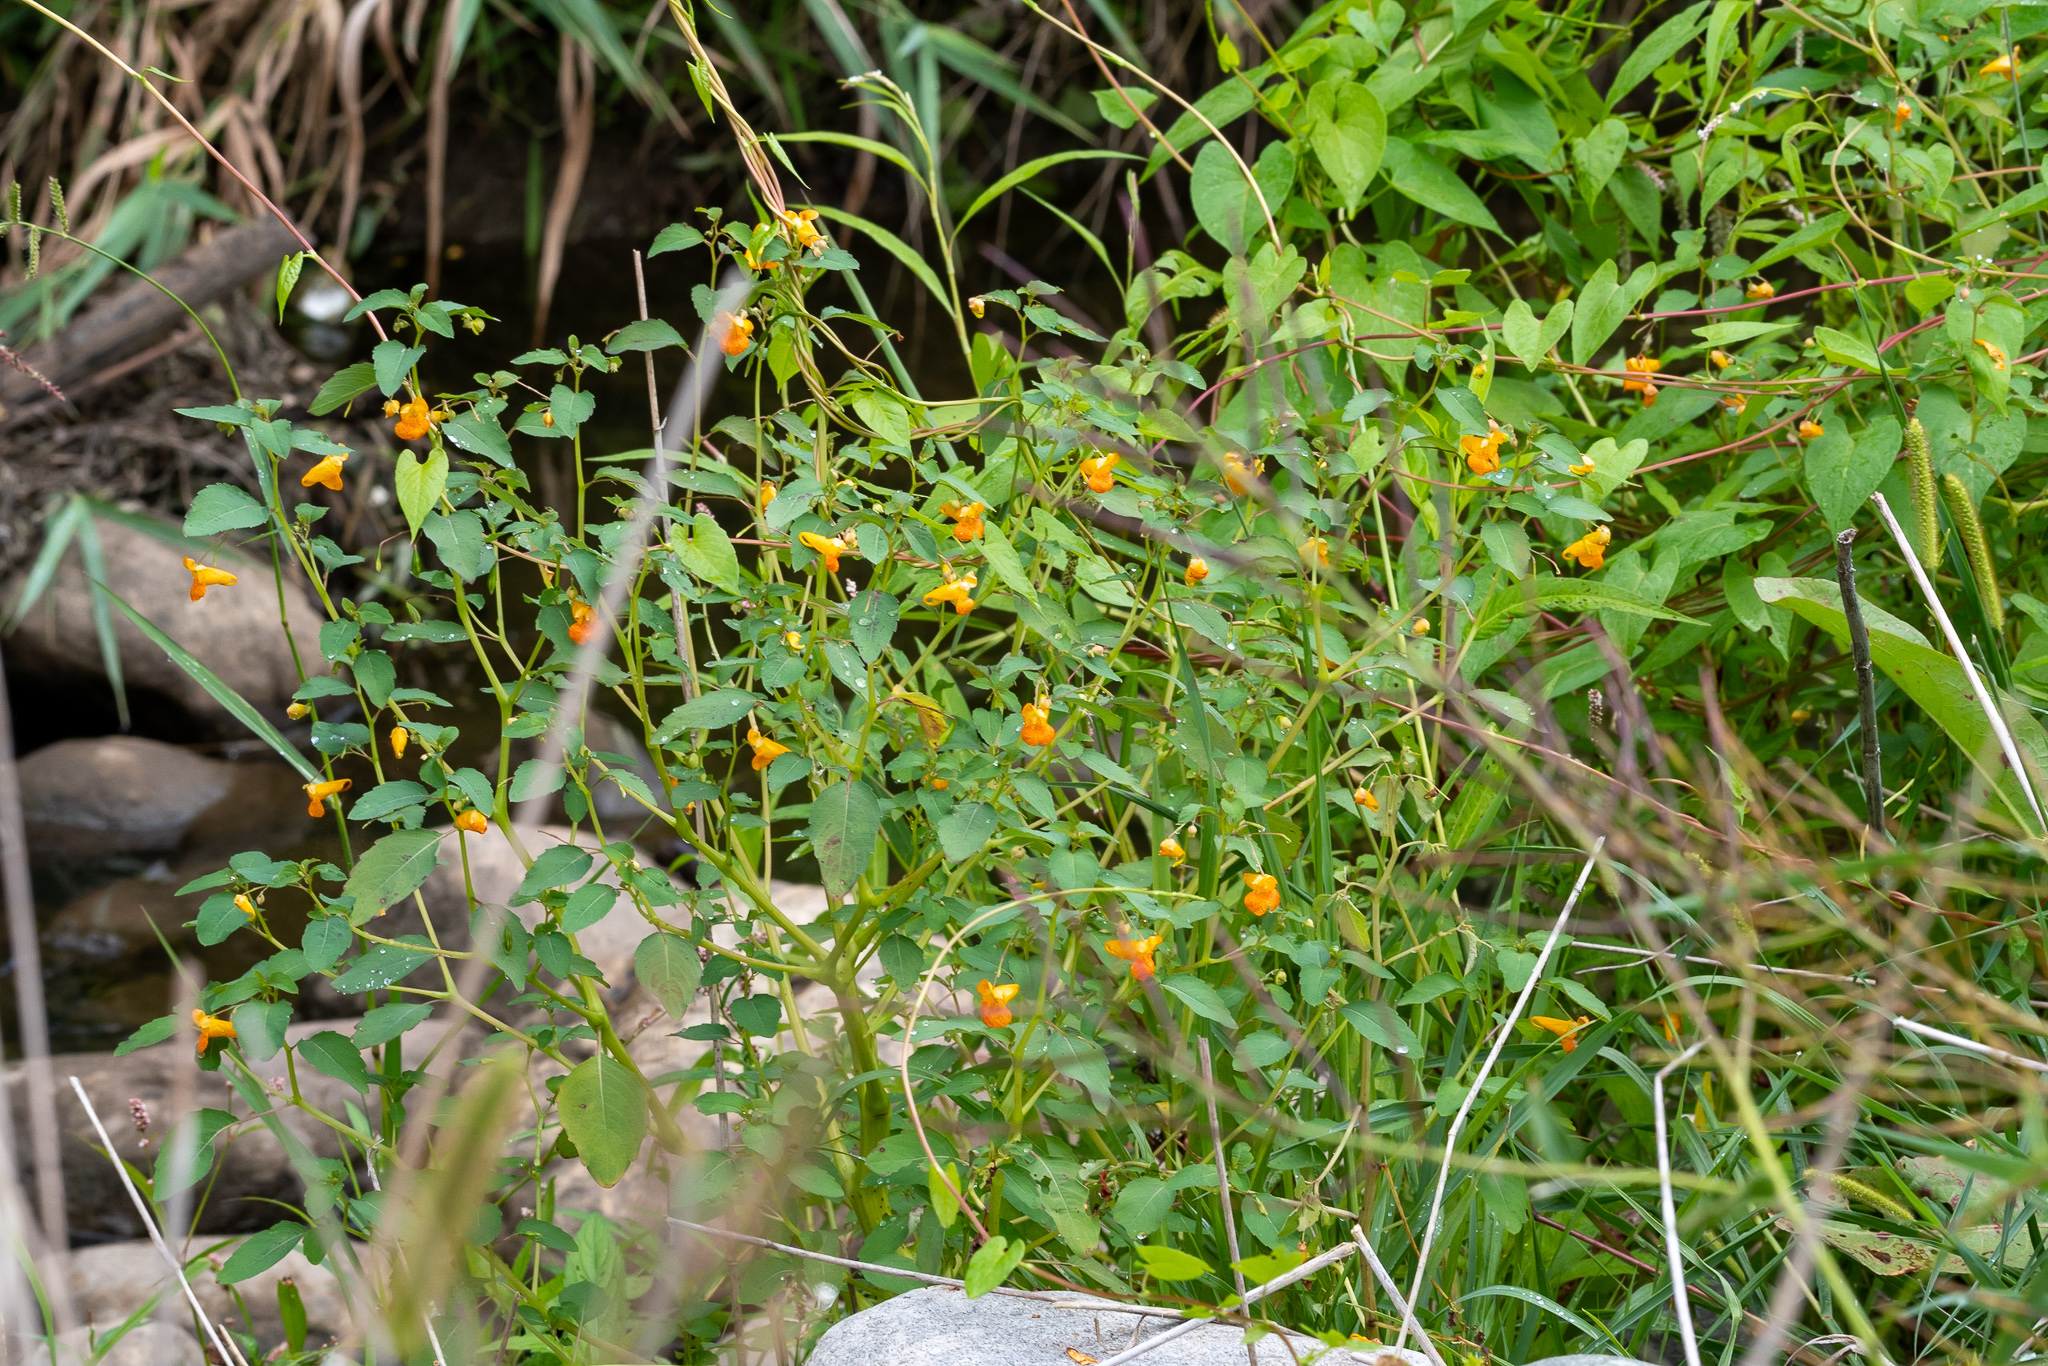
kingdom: Plantae
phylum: Tracheophyta
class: Magnoliopsida
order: Ericales
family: Balsaminaceae
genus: Impatiens
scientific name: Impatiens capensis
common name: Orange balsam
